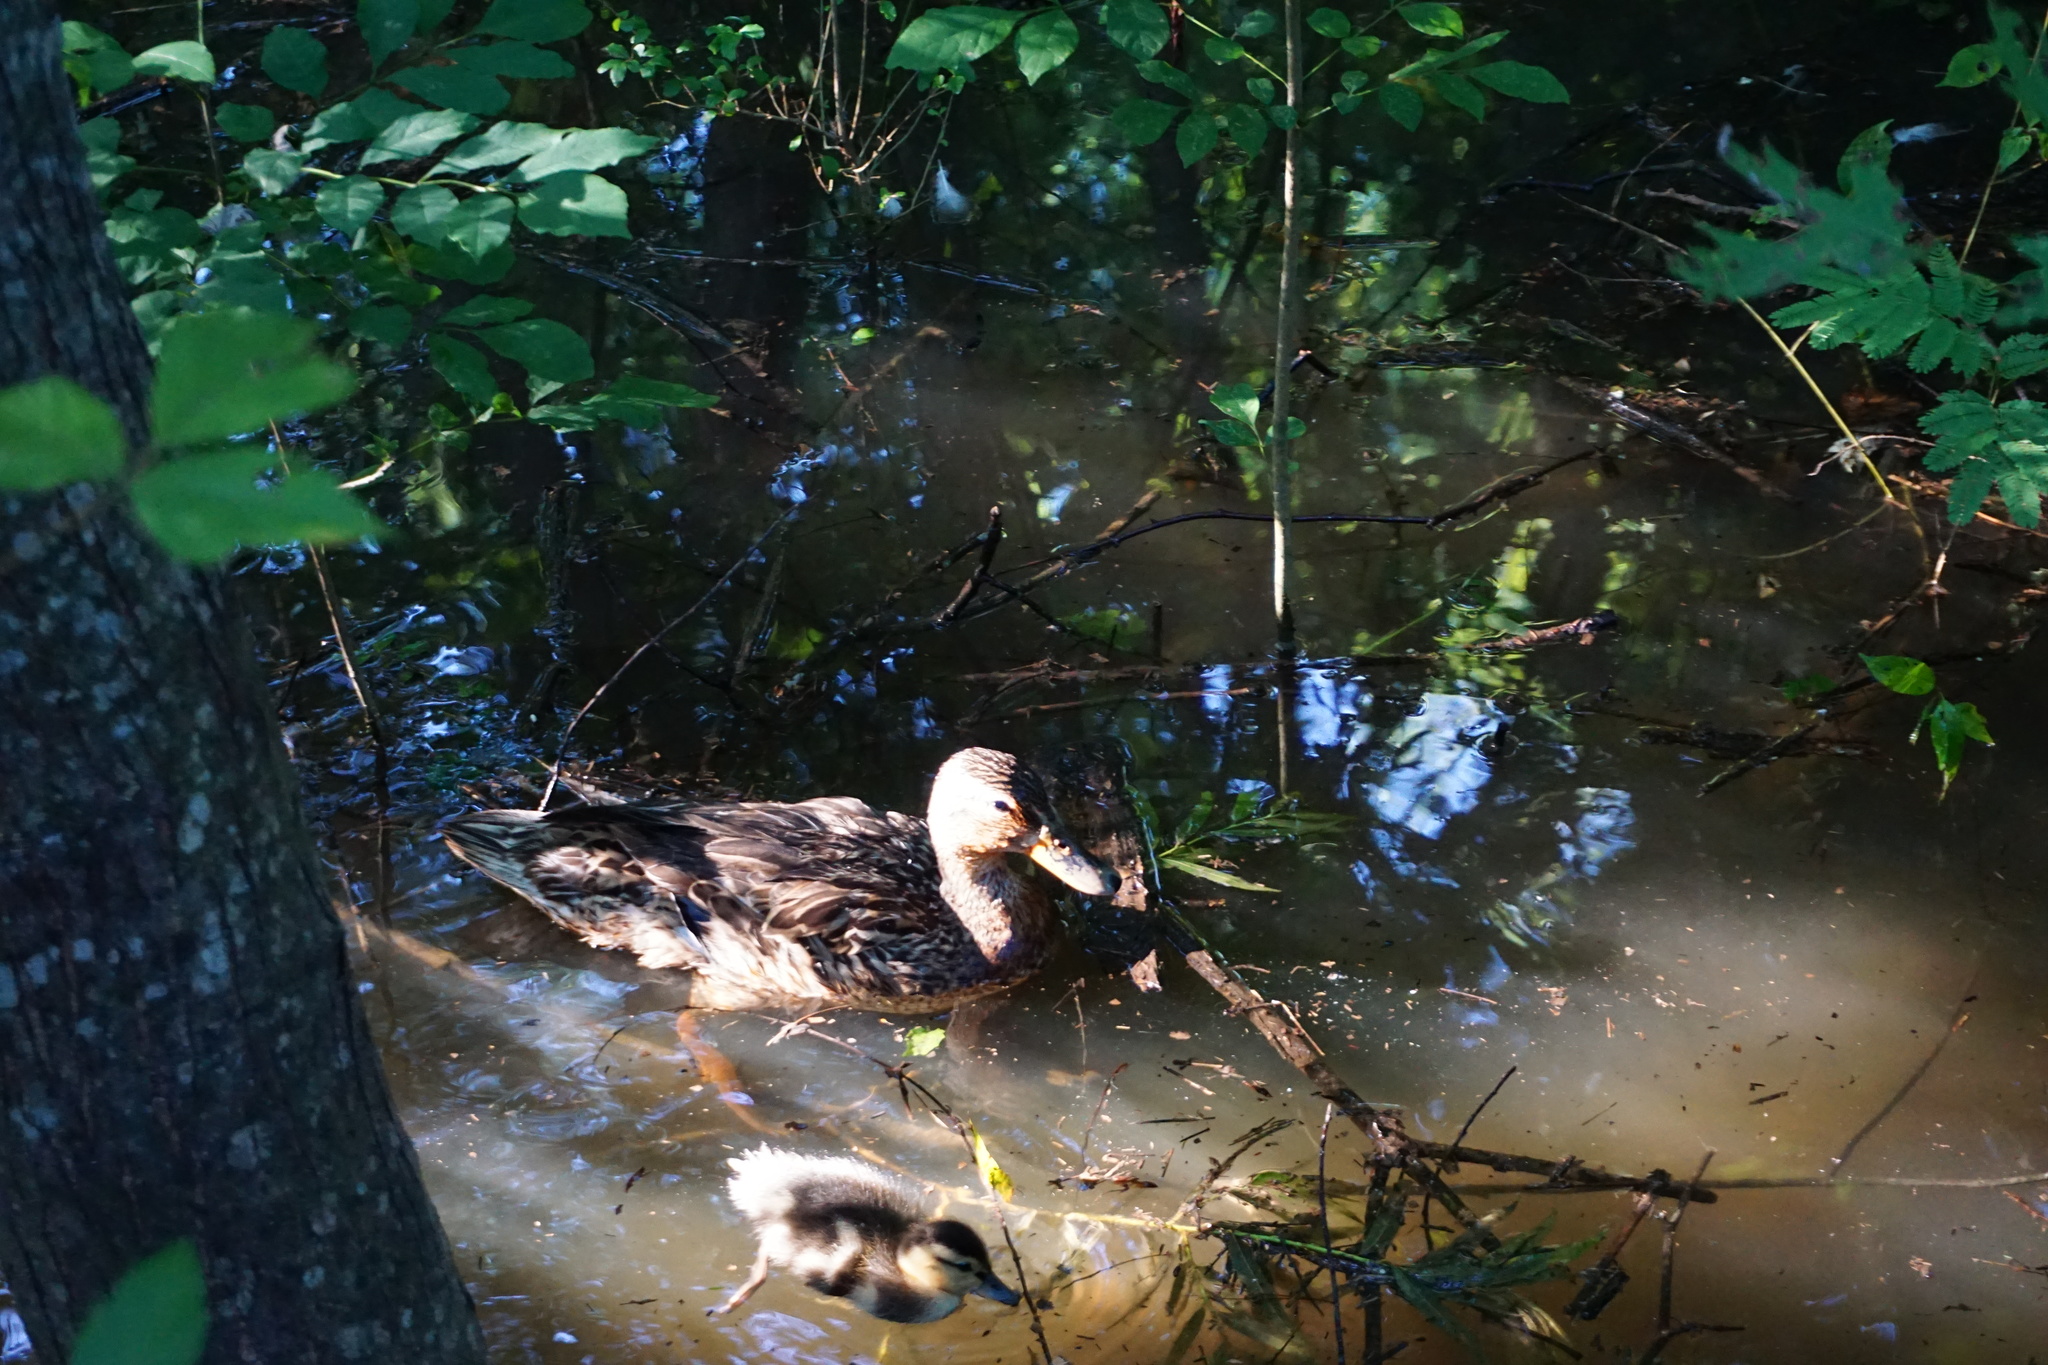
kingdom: Animalia
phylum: Chordata
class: Aves
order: Anseriformes
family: Anatidae
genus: Anas
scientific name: Anas platyrhynchos
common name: Mallard
